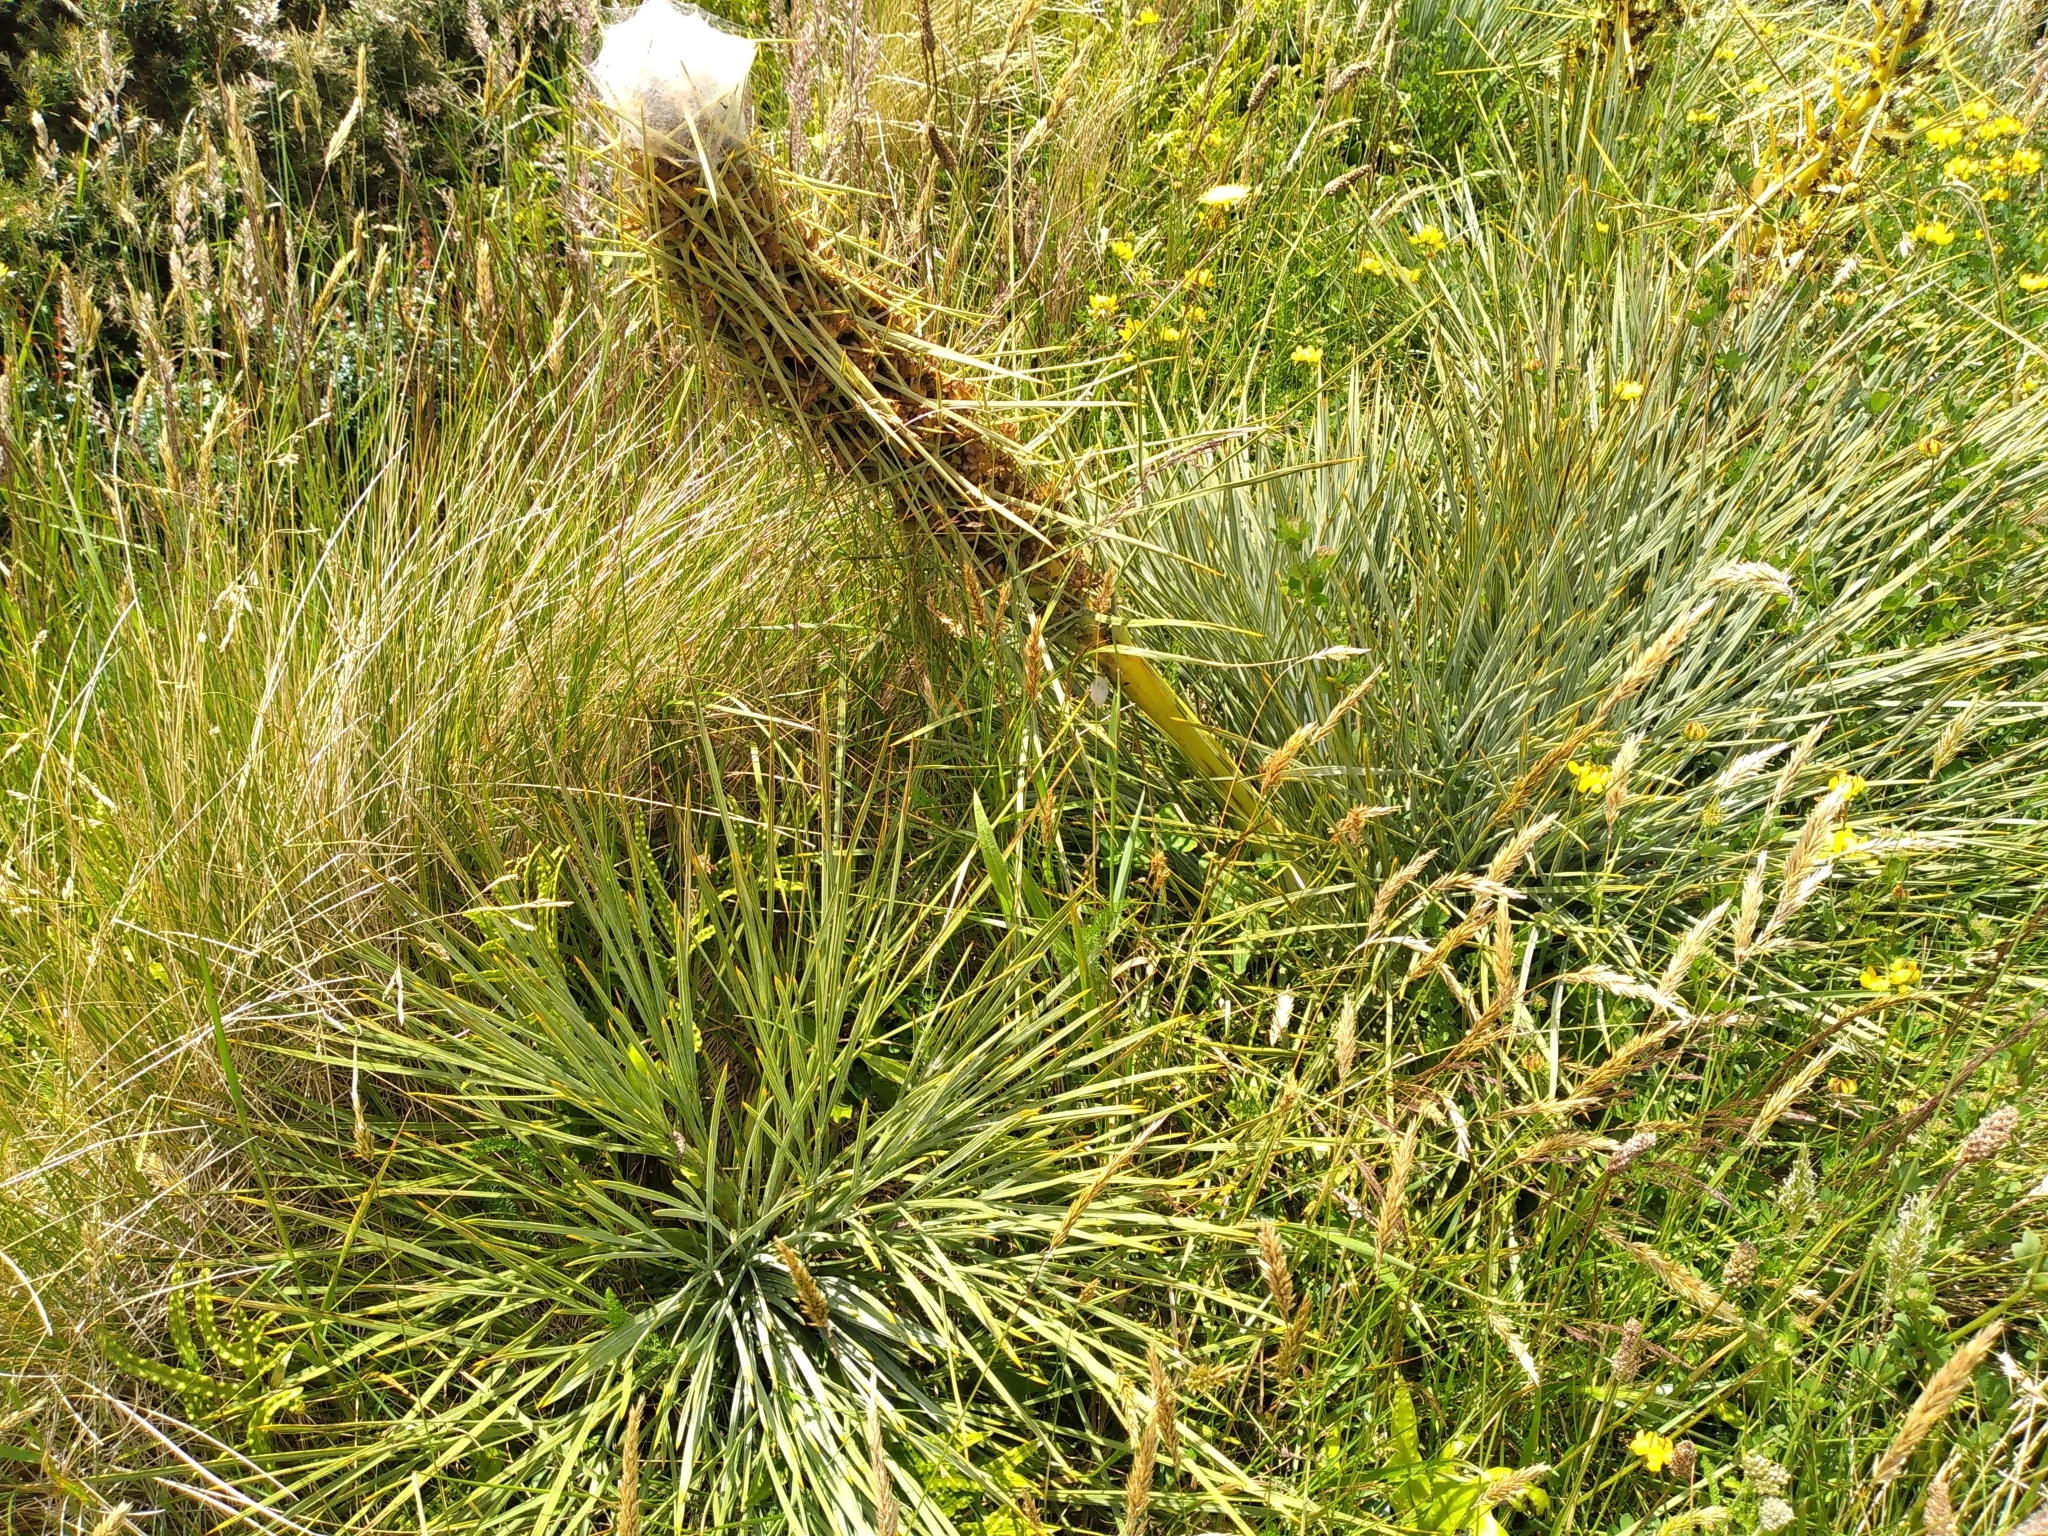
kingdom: Plantae
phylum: Tracheophyta
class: Magnoliopsida
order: Apiales
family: Apiaceae
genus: Aciphylla
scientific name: Aciphylla squarrosa
